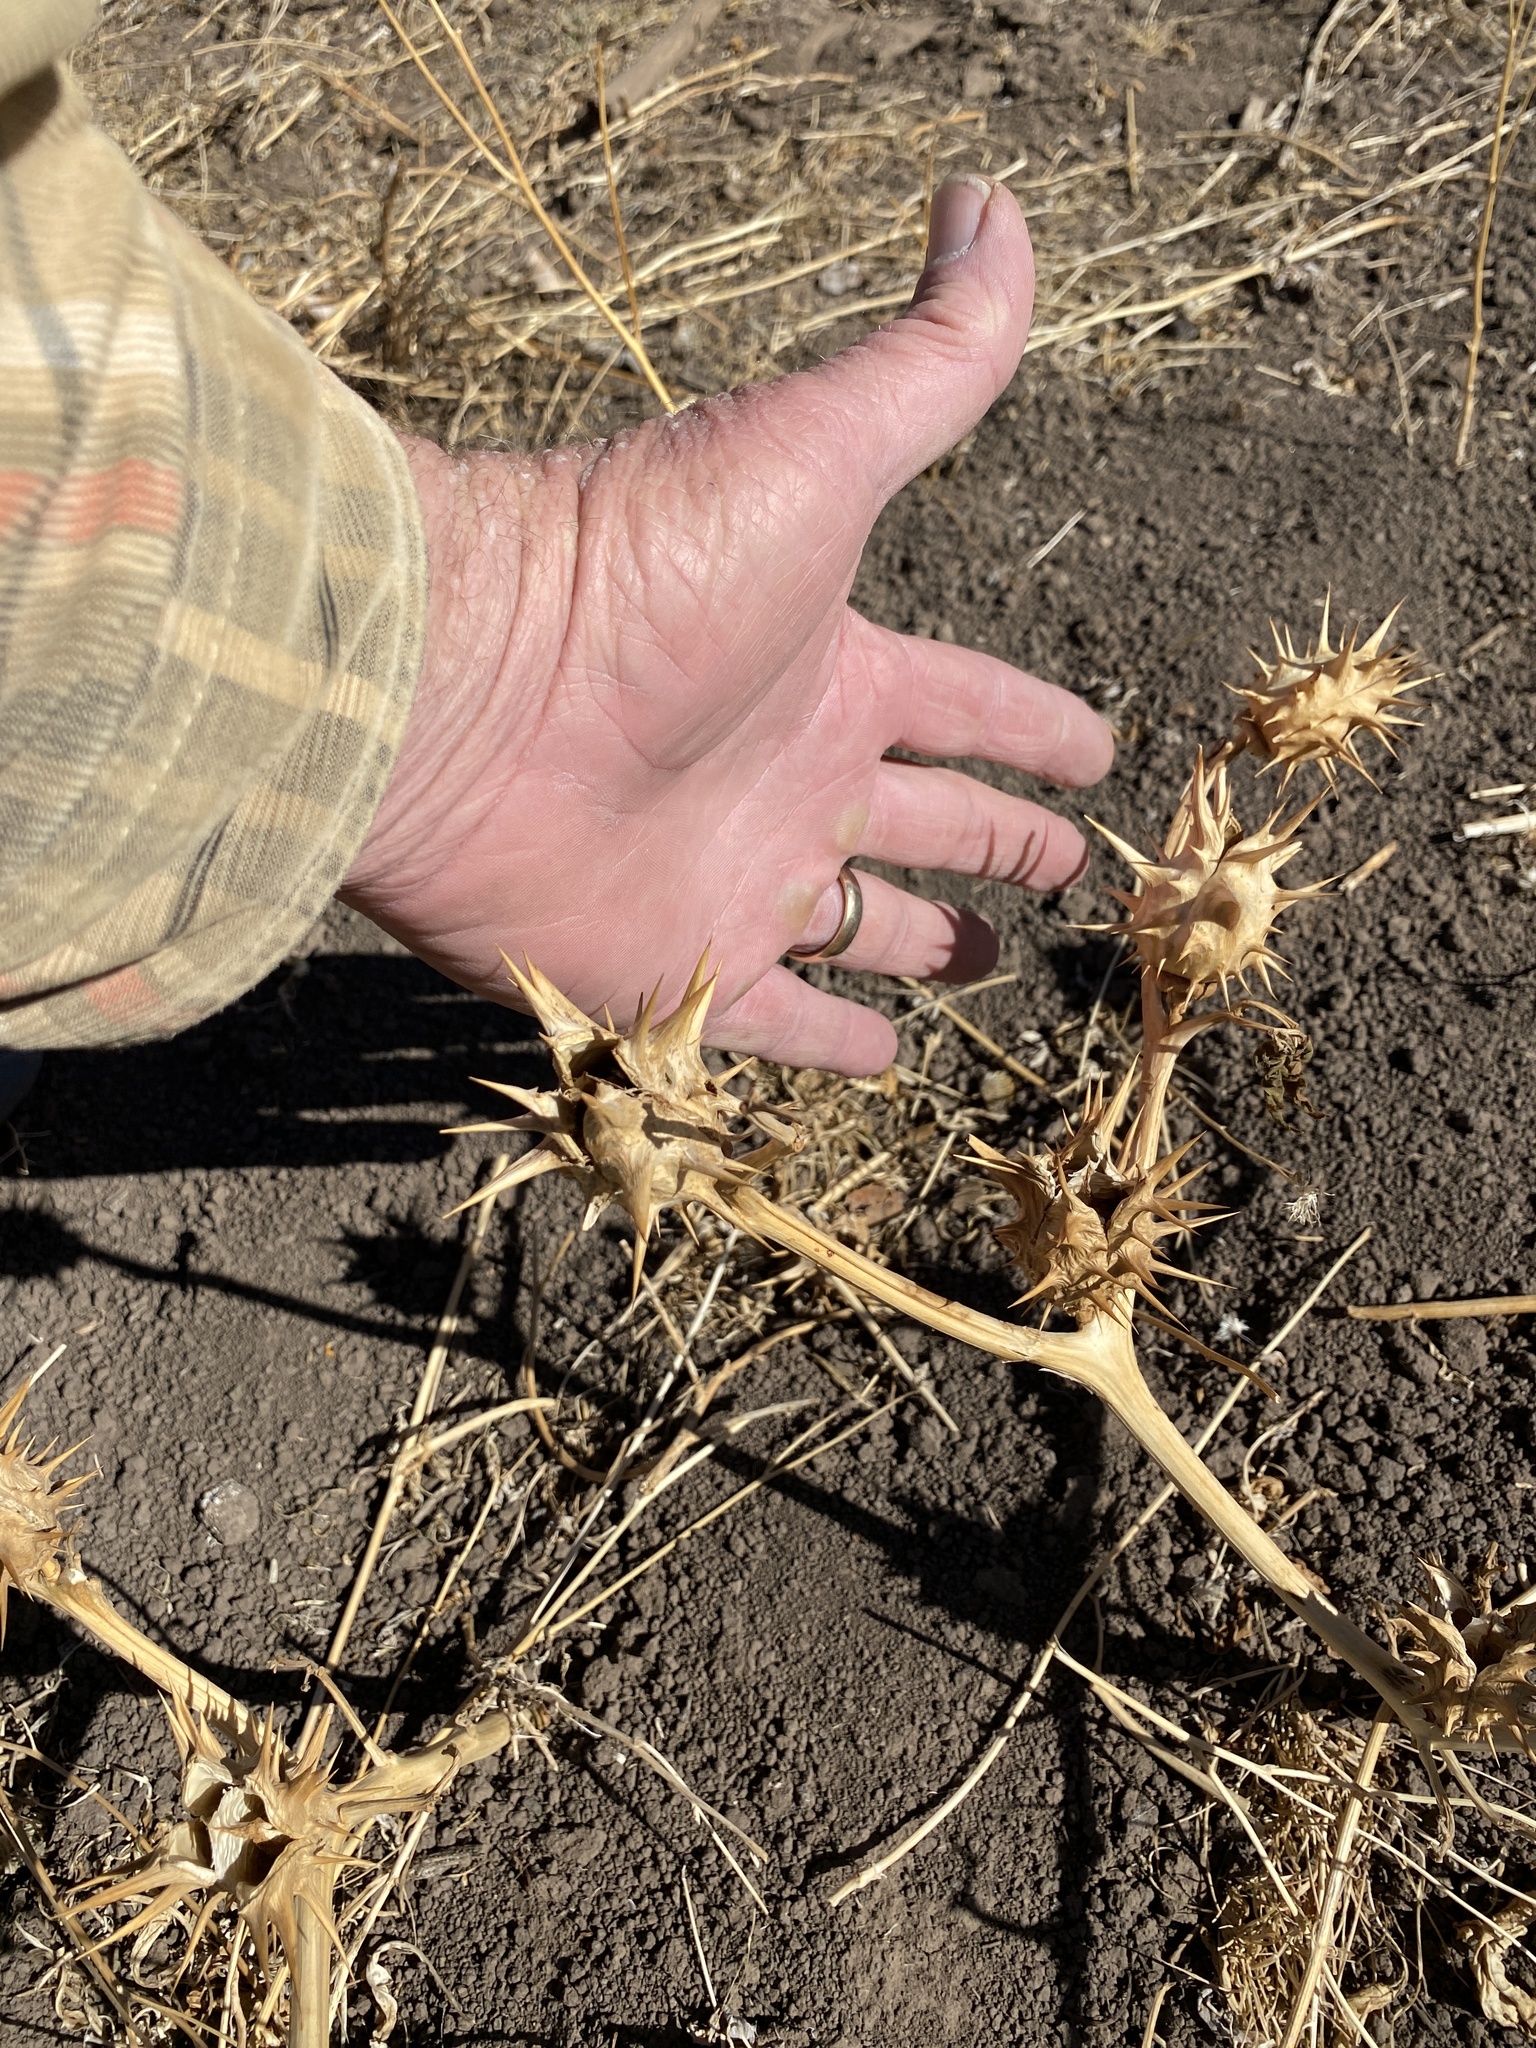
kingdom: Plantae
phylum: Tracheophyta
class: Magnoliopsida
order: Solanales
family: Solanaceae
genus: Datura
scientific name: Datura quercifolia
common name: Oak-leaf datura
